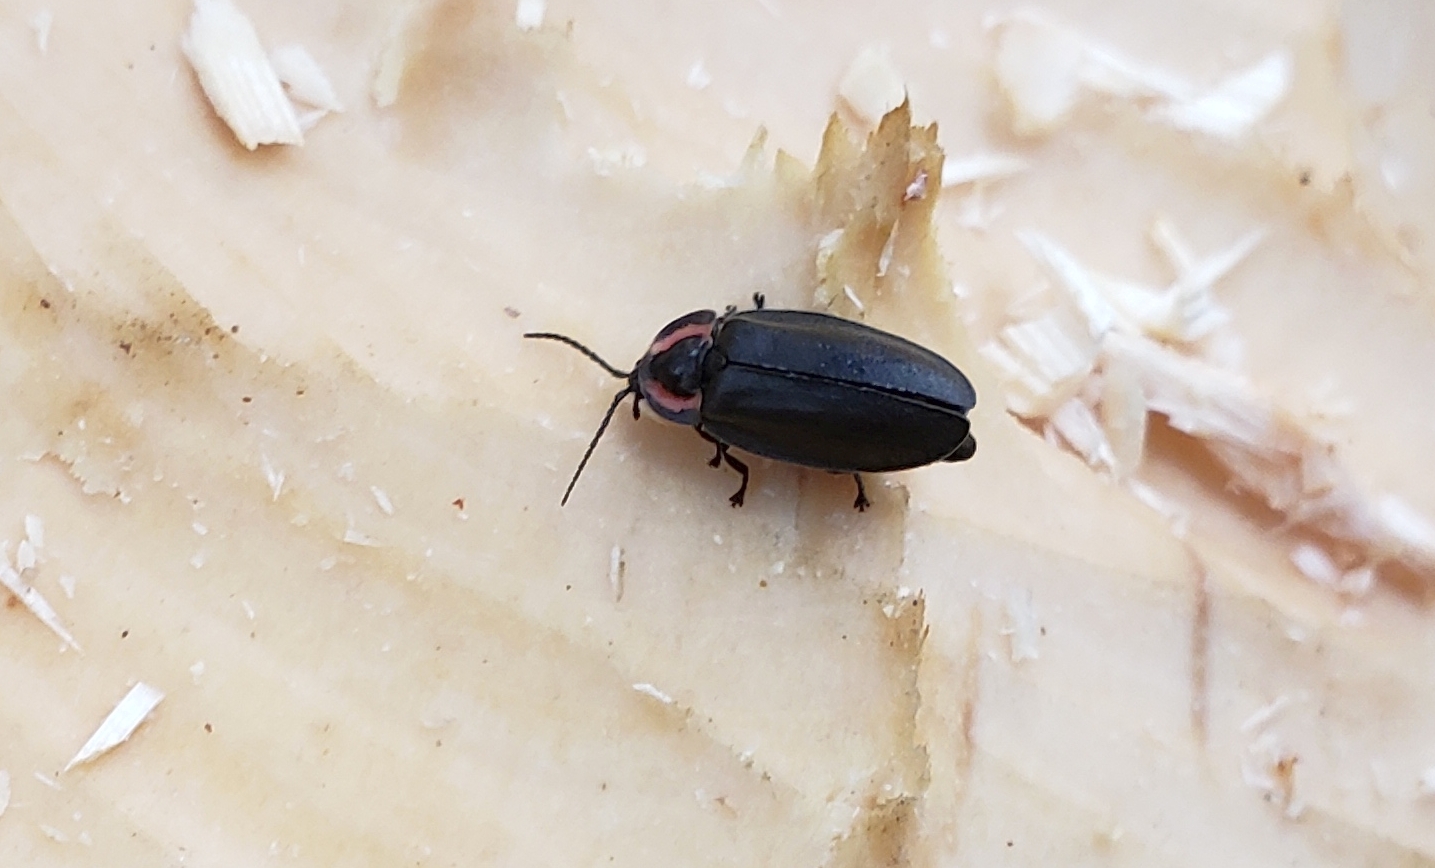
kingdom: Animalia
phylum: Arthropoda
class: Insecta
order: Coleoptera
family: Lampyridae
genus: Photinus
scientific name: Photinus corrusca
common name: Winter firefly
